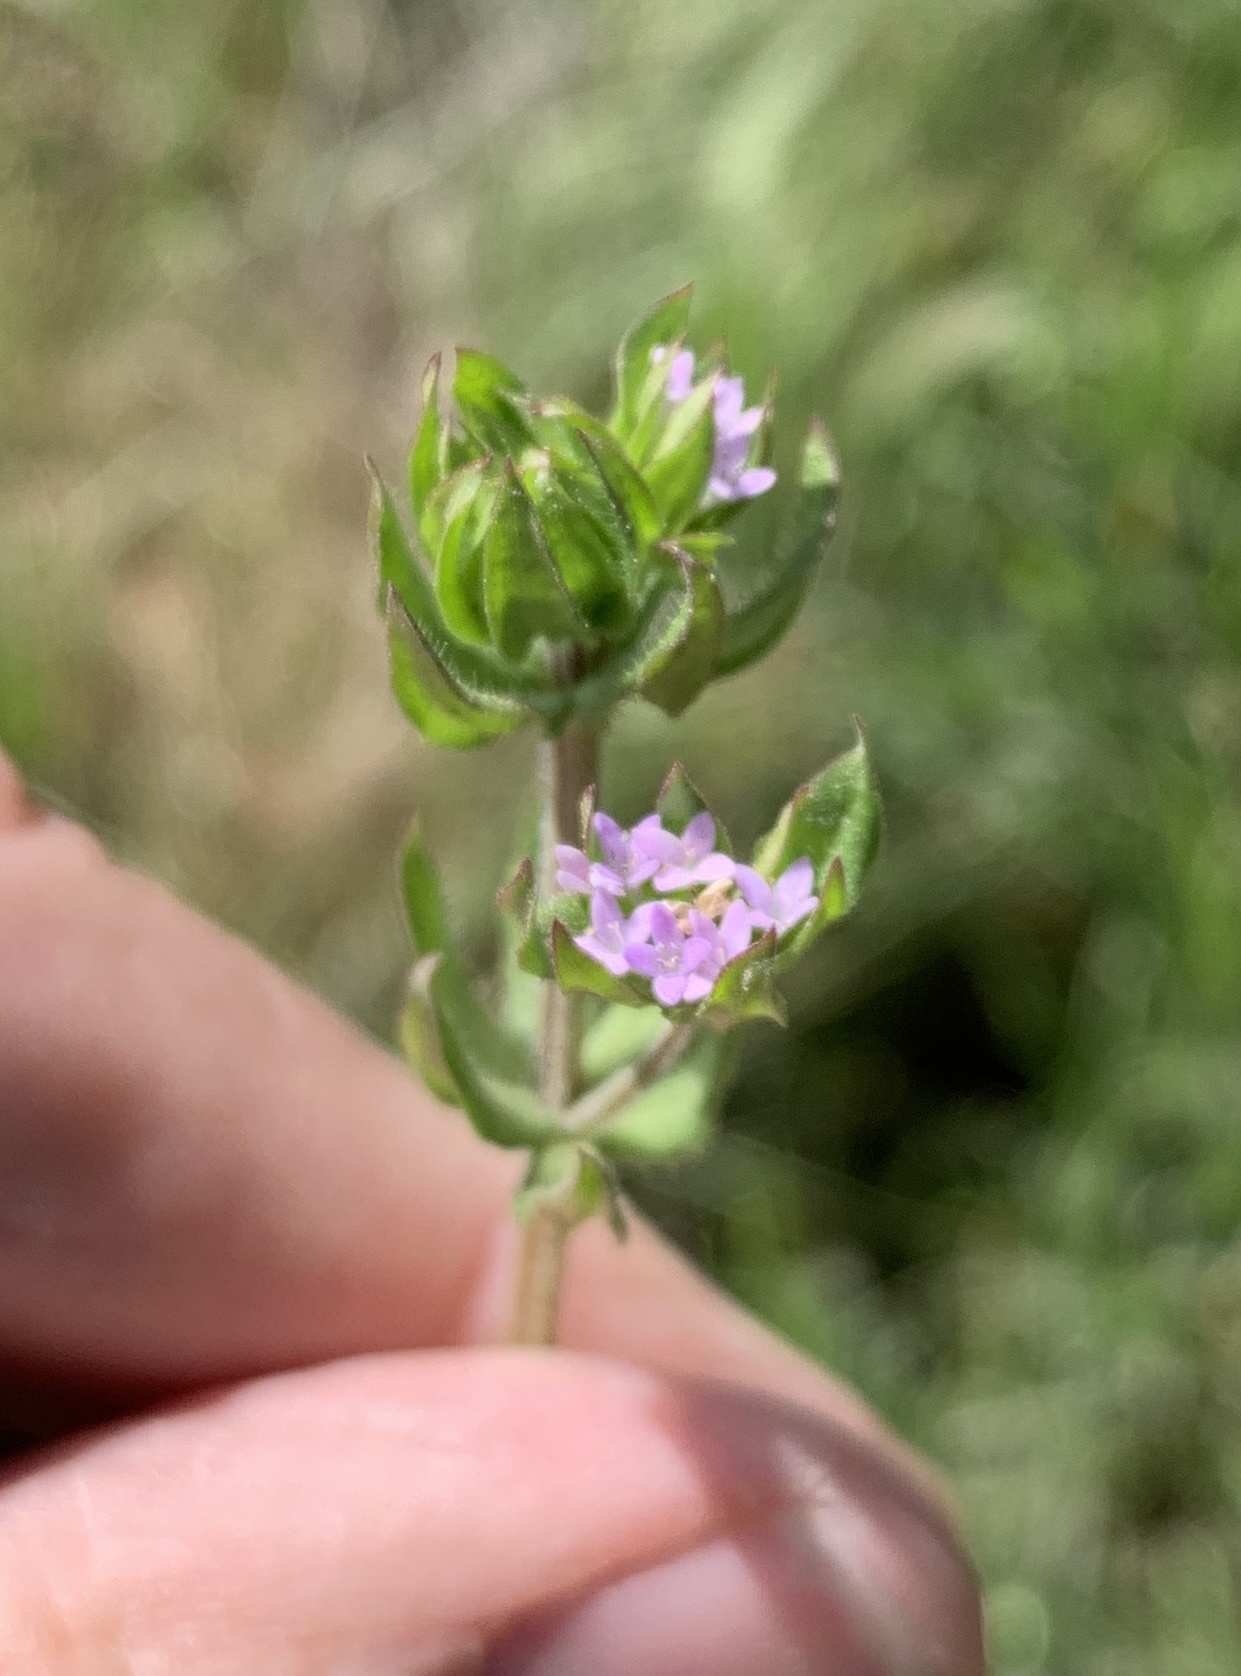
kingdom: Plantae
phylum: Tracheophyta
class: Magnoliopsida
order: Gentianales
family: Rubiaceae
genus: Sherardia
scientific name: Sherardia arvensis
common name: Field madder
